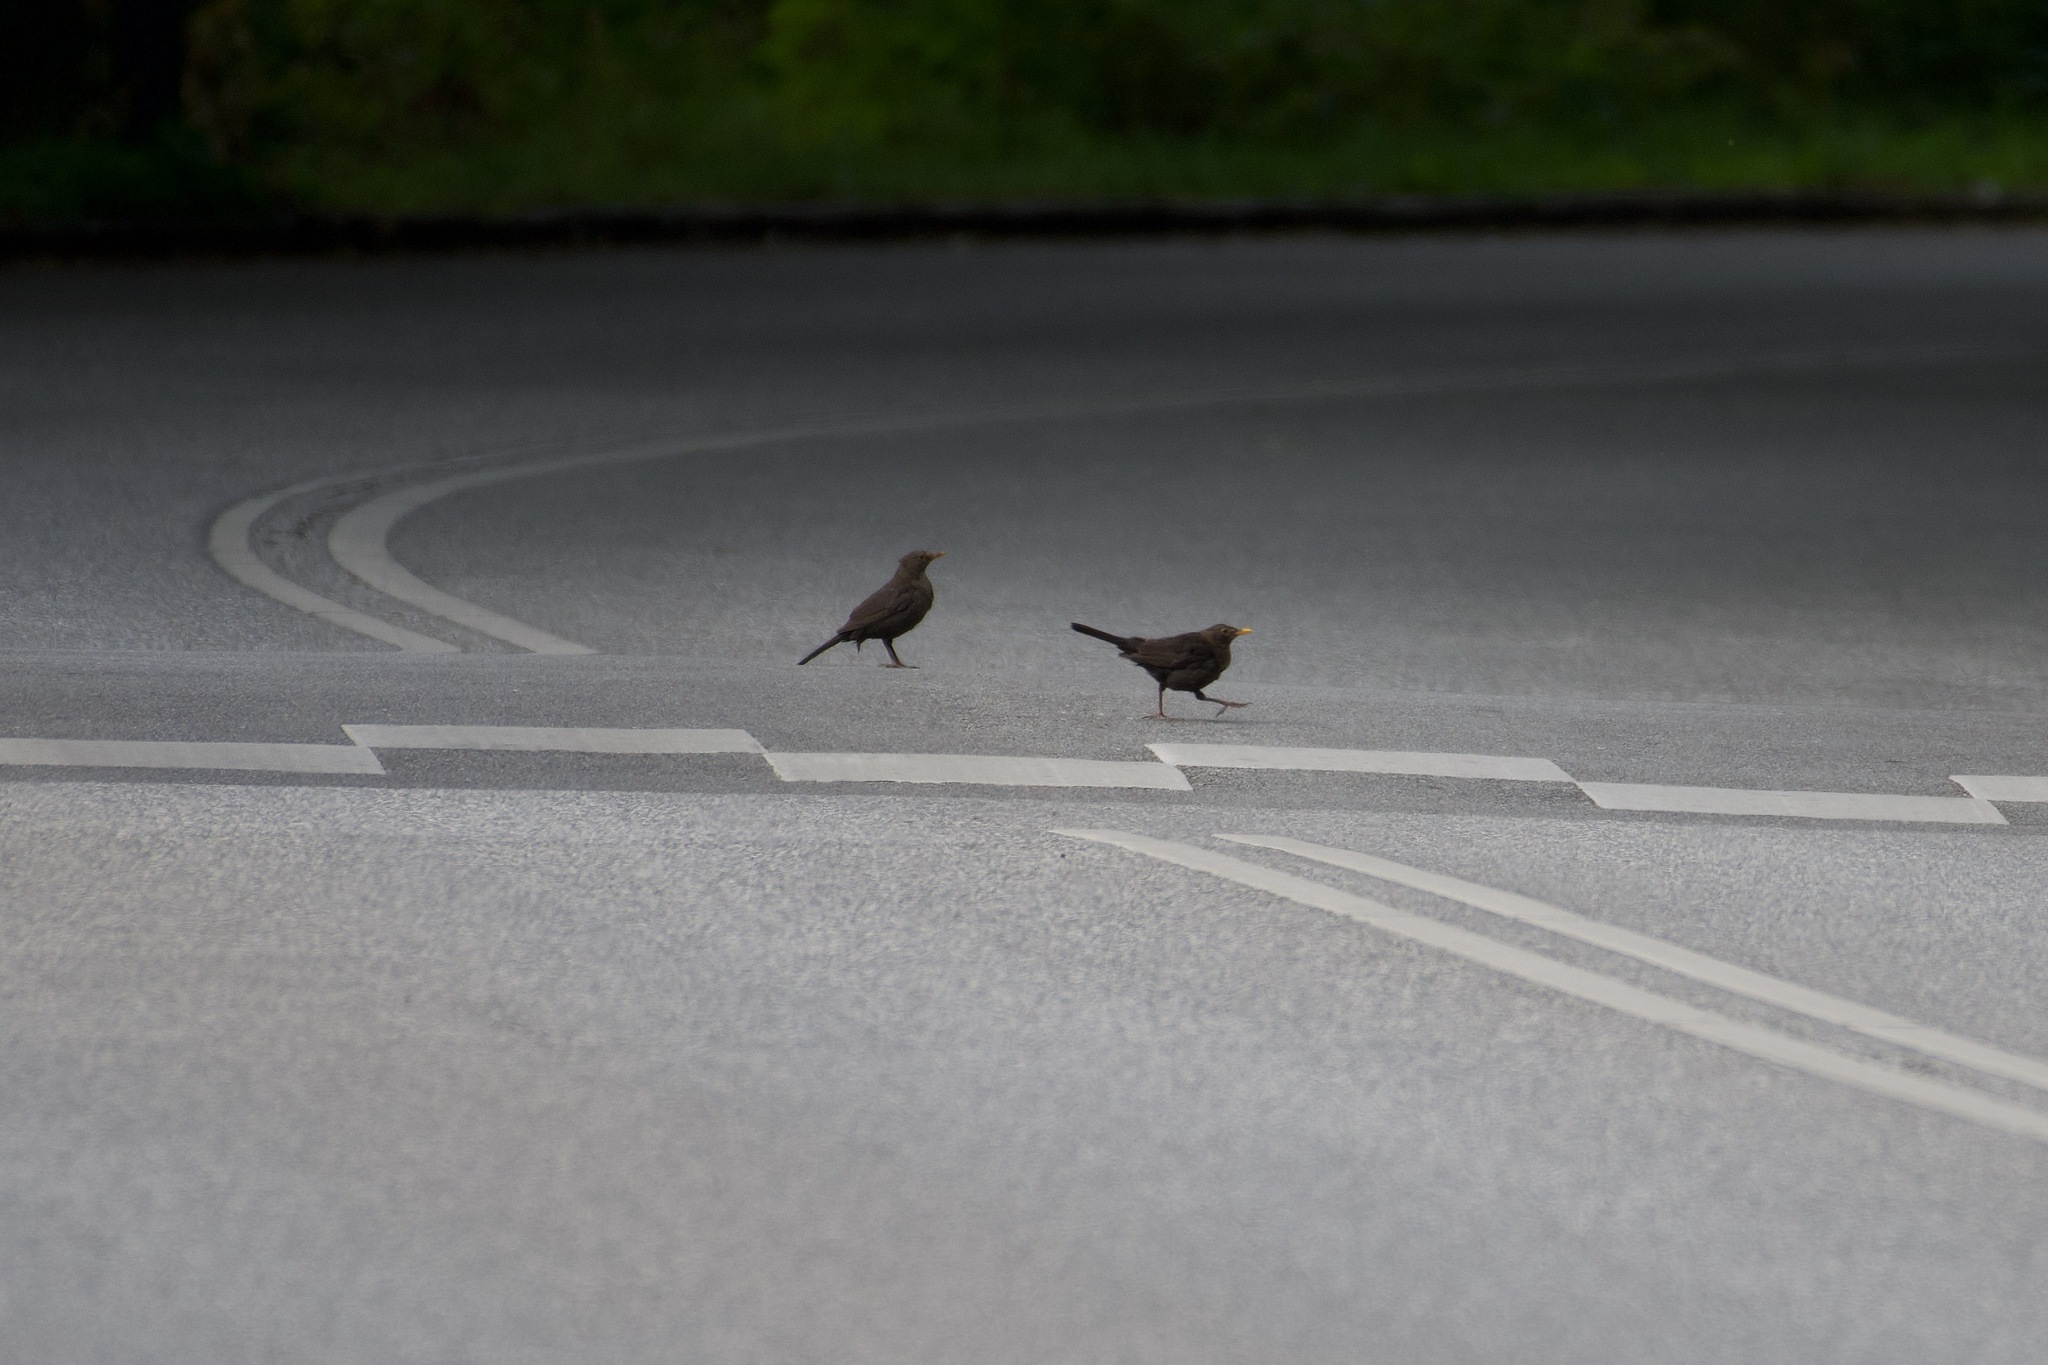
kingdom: Animalia
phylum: Chordata
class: Aves
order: Passeriformes
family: Turdidae
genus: Turdus
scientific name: Turdus merula
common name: Common blackbird
